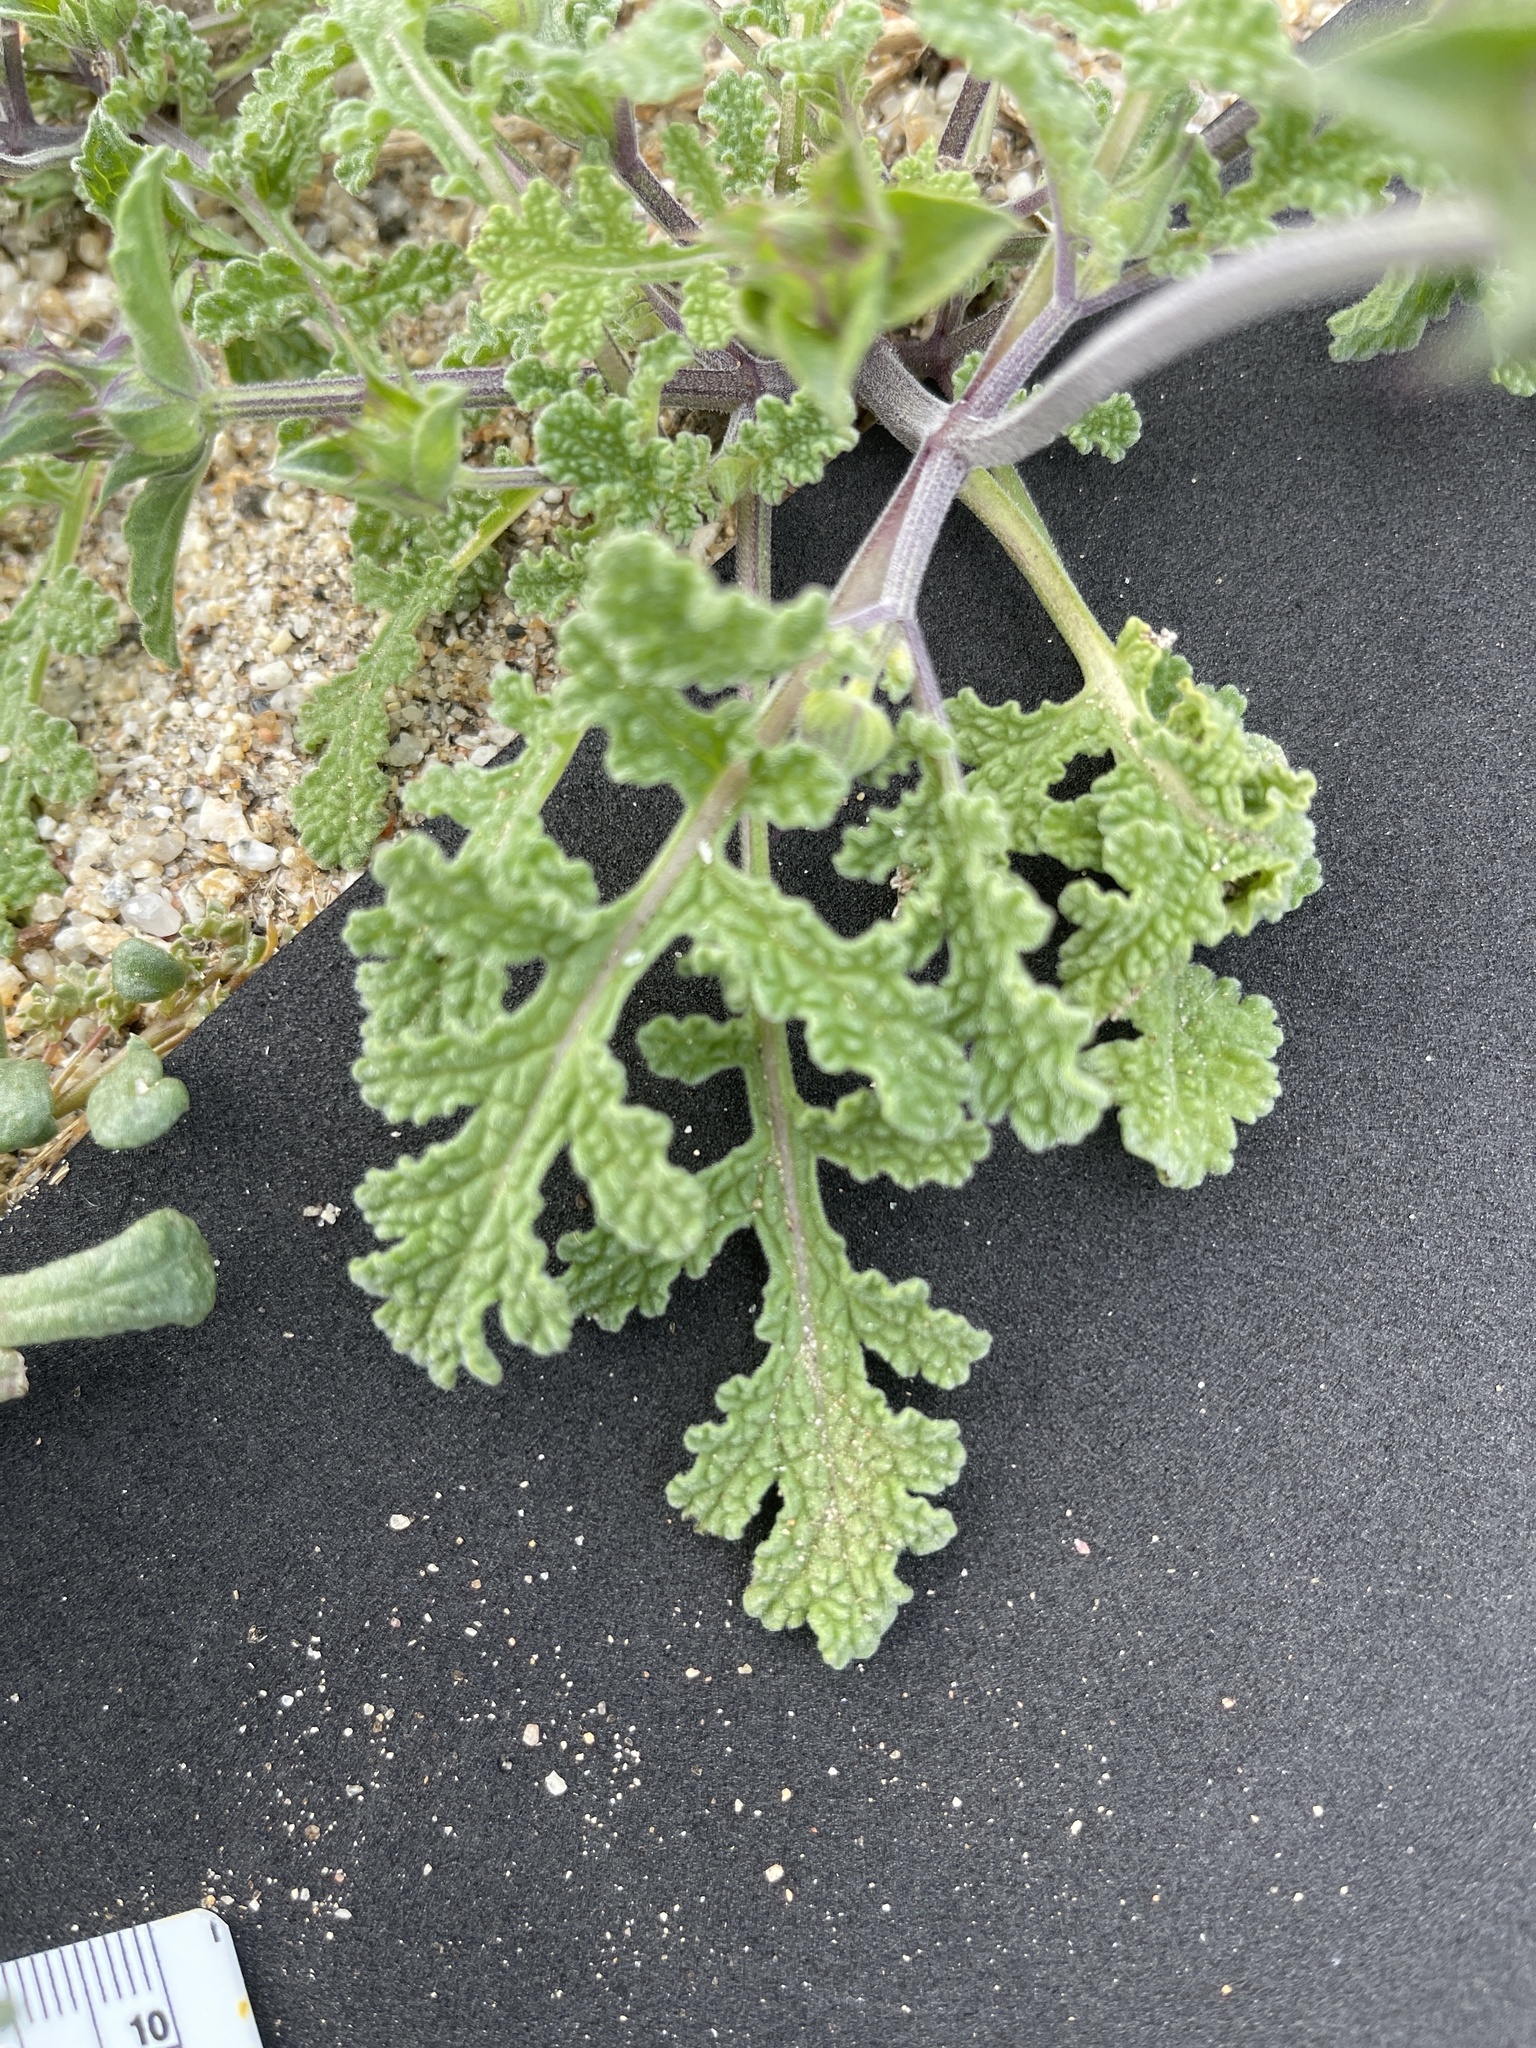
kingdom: Plantae
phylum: Tracheophyta
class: Magnoliopsida
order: Lamiales
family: Lamiaceae
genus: Salvia
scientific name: Salvia columbariae
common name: Chia
